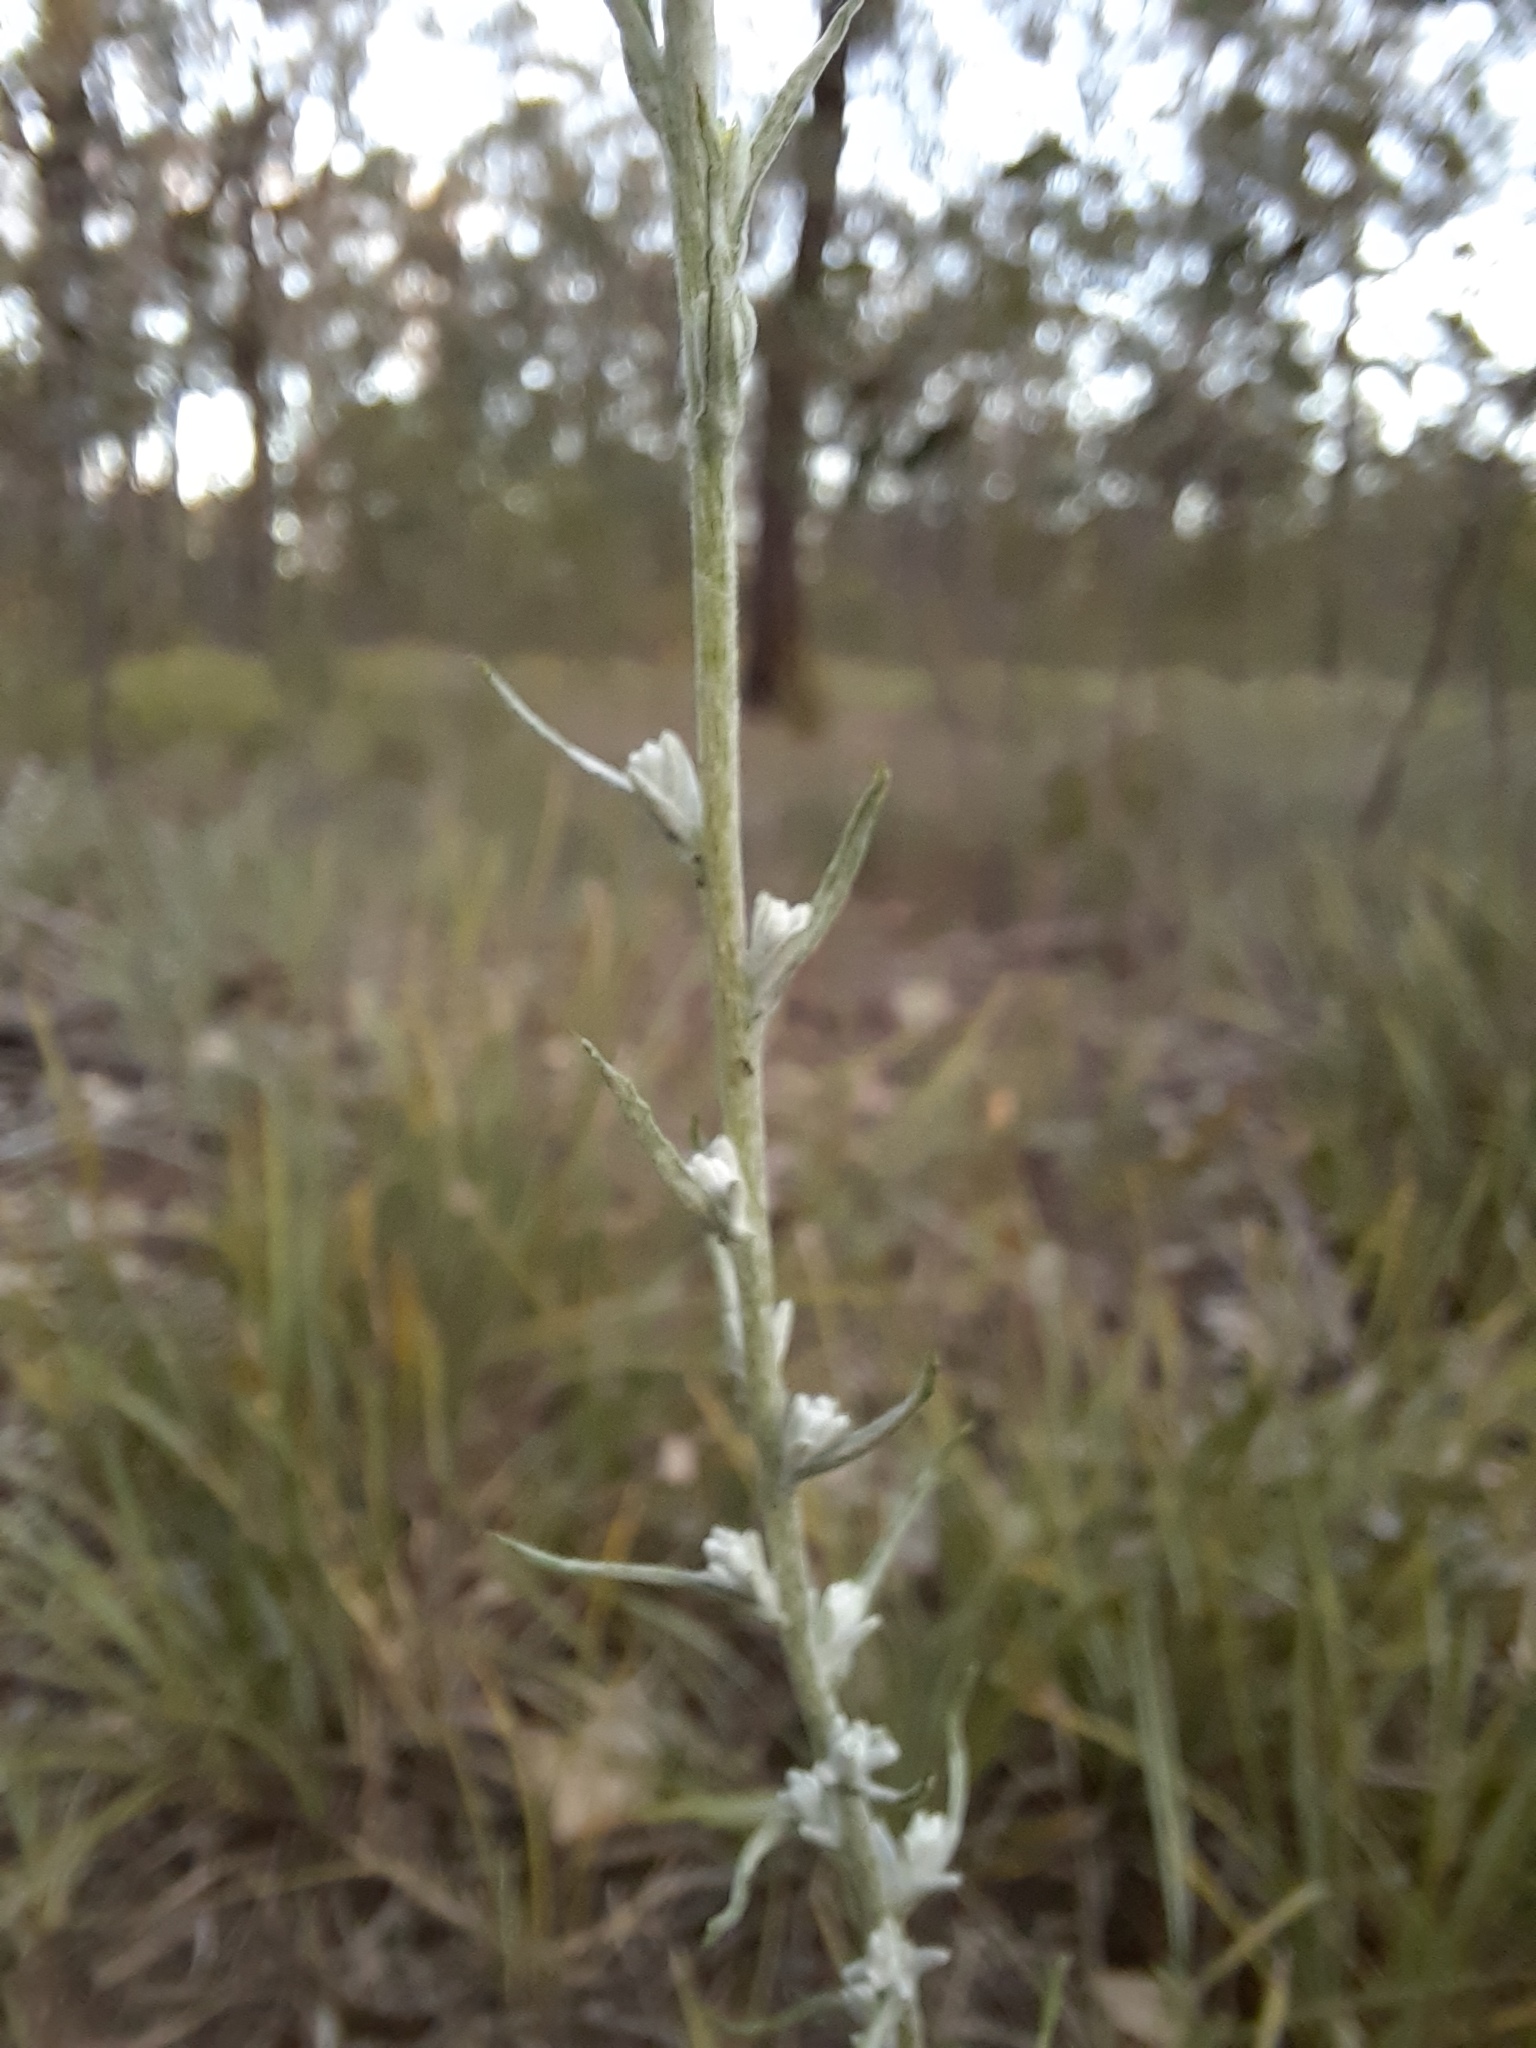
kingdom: Plantae
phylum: Tracheophyta
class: Magnoliopsida
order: Asterales
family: Asteraceae
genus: Chrysocephalum
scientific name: Chrysocephalum semipapposum
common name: Clustered everlasting
